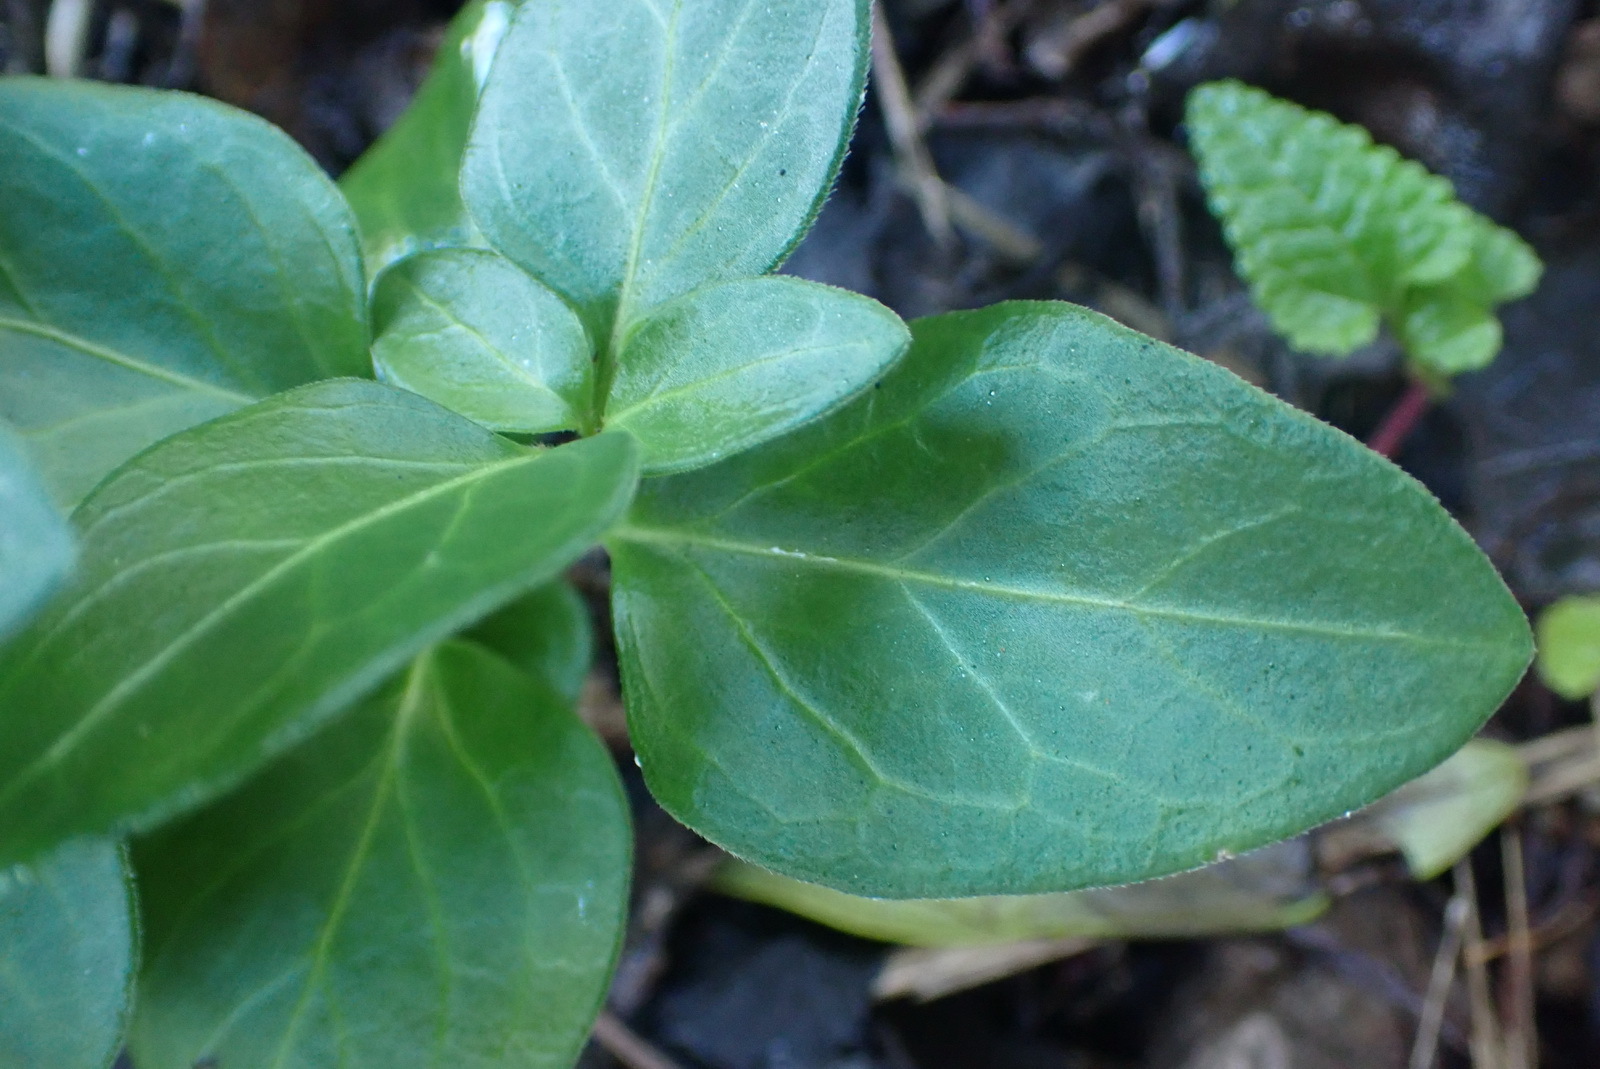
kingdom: Plantae
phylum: Tracheophyta
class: Magnoliopsida
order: Gentianales
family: Apocynaceae
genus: Vinca
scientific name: Vinca major
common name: Greater periwinkle
